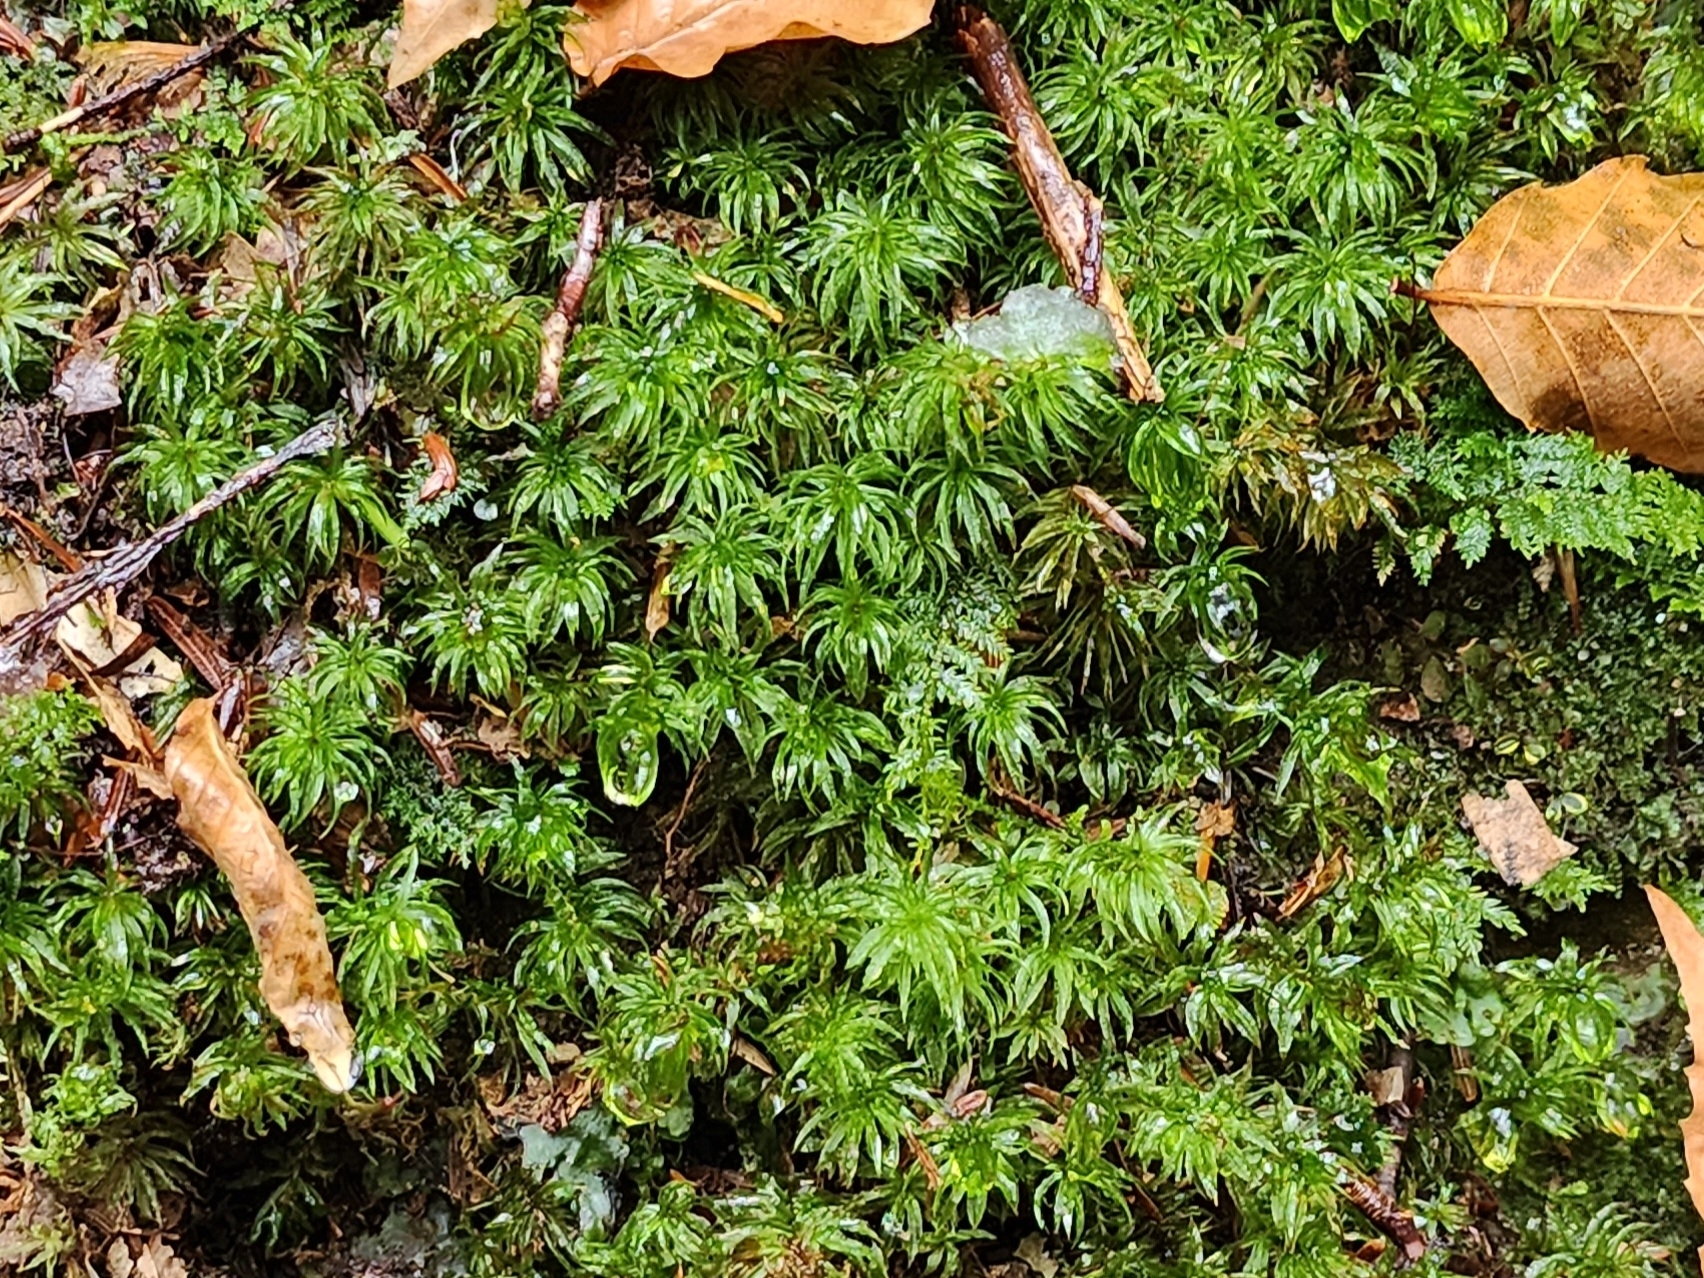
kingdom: Plantae
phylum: Bryophyta
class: Polytrichopsida
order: Polytrichales
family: Polytrichaceae
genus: Atrichum
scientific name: Atrichum undulatum
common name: Common smoothcap
